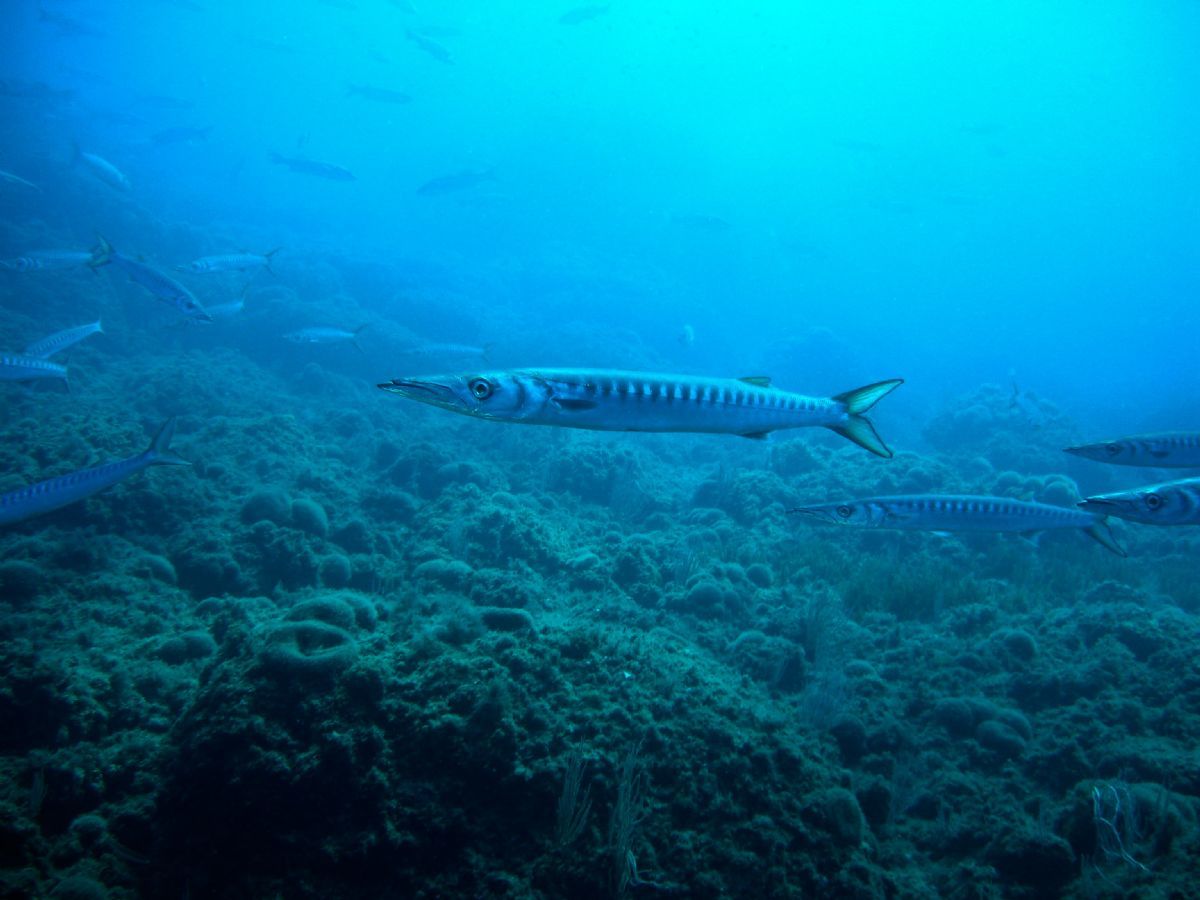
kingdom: Animalia
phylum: Chordata
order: Perciformes
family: Sphyraenidae
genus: Sphyraena
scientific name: Sphyraena viridensis
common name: Yellowmouth barracuda
